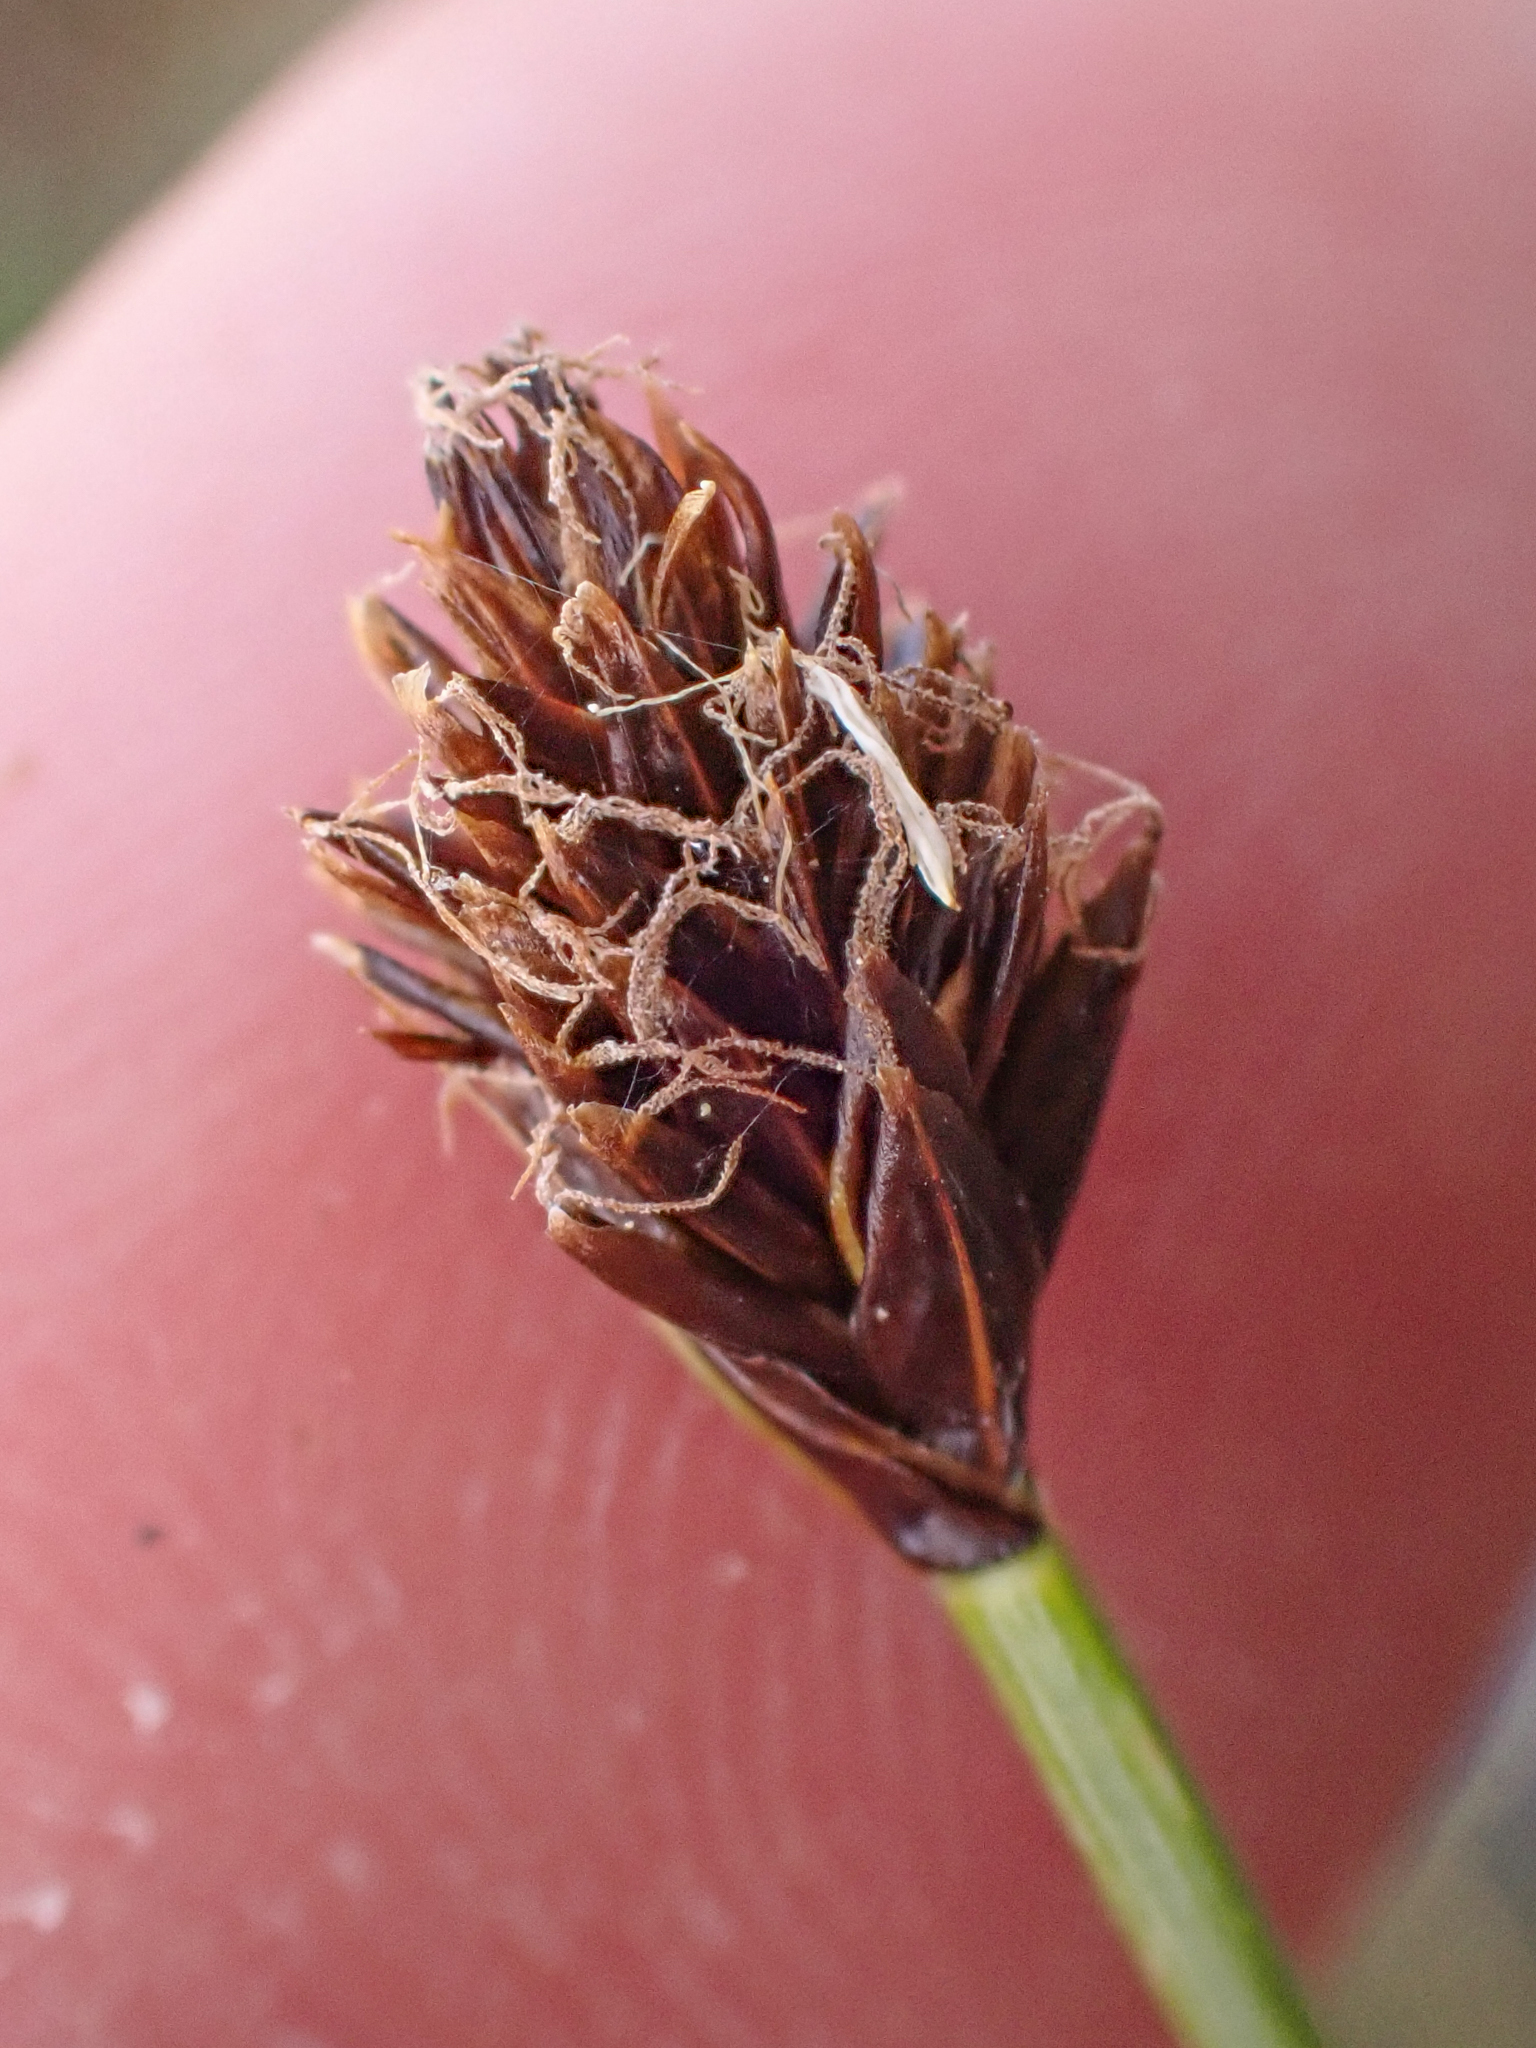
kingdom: Plantae
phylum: Tracheophyta
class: Liliopsida
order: Poales
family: Cyperaceae
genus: Carex
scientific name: Carex nigricans
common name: Black alpine sedge
